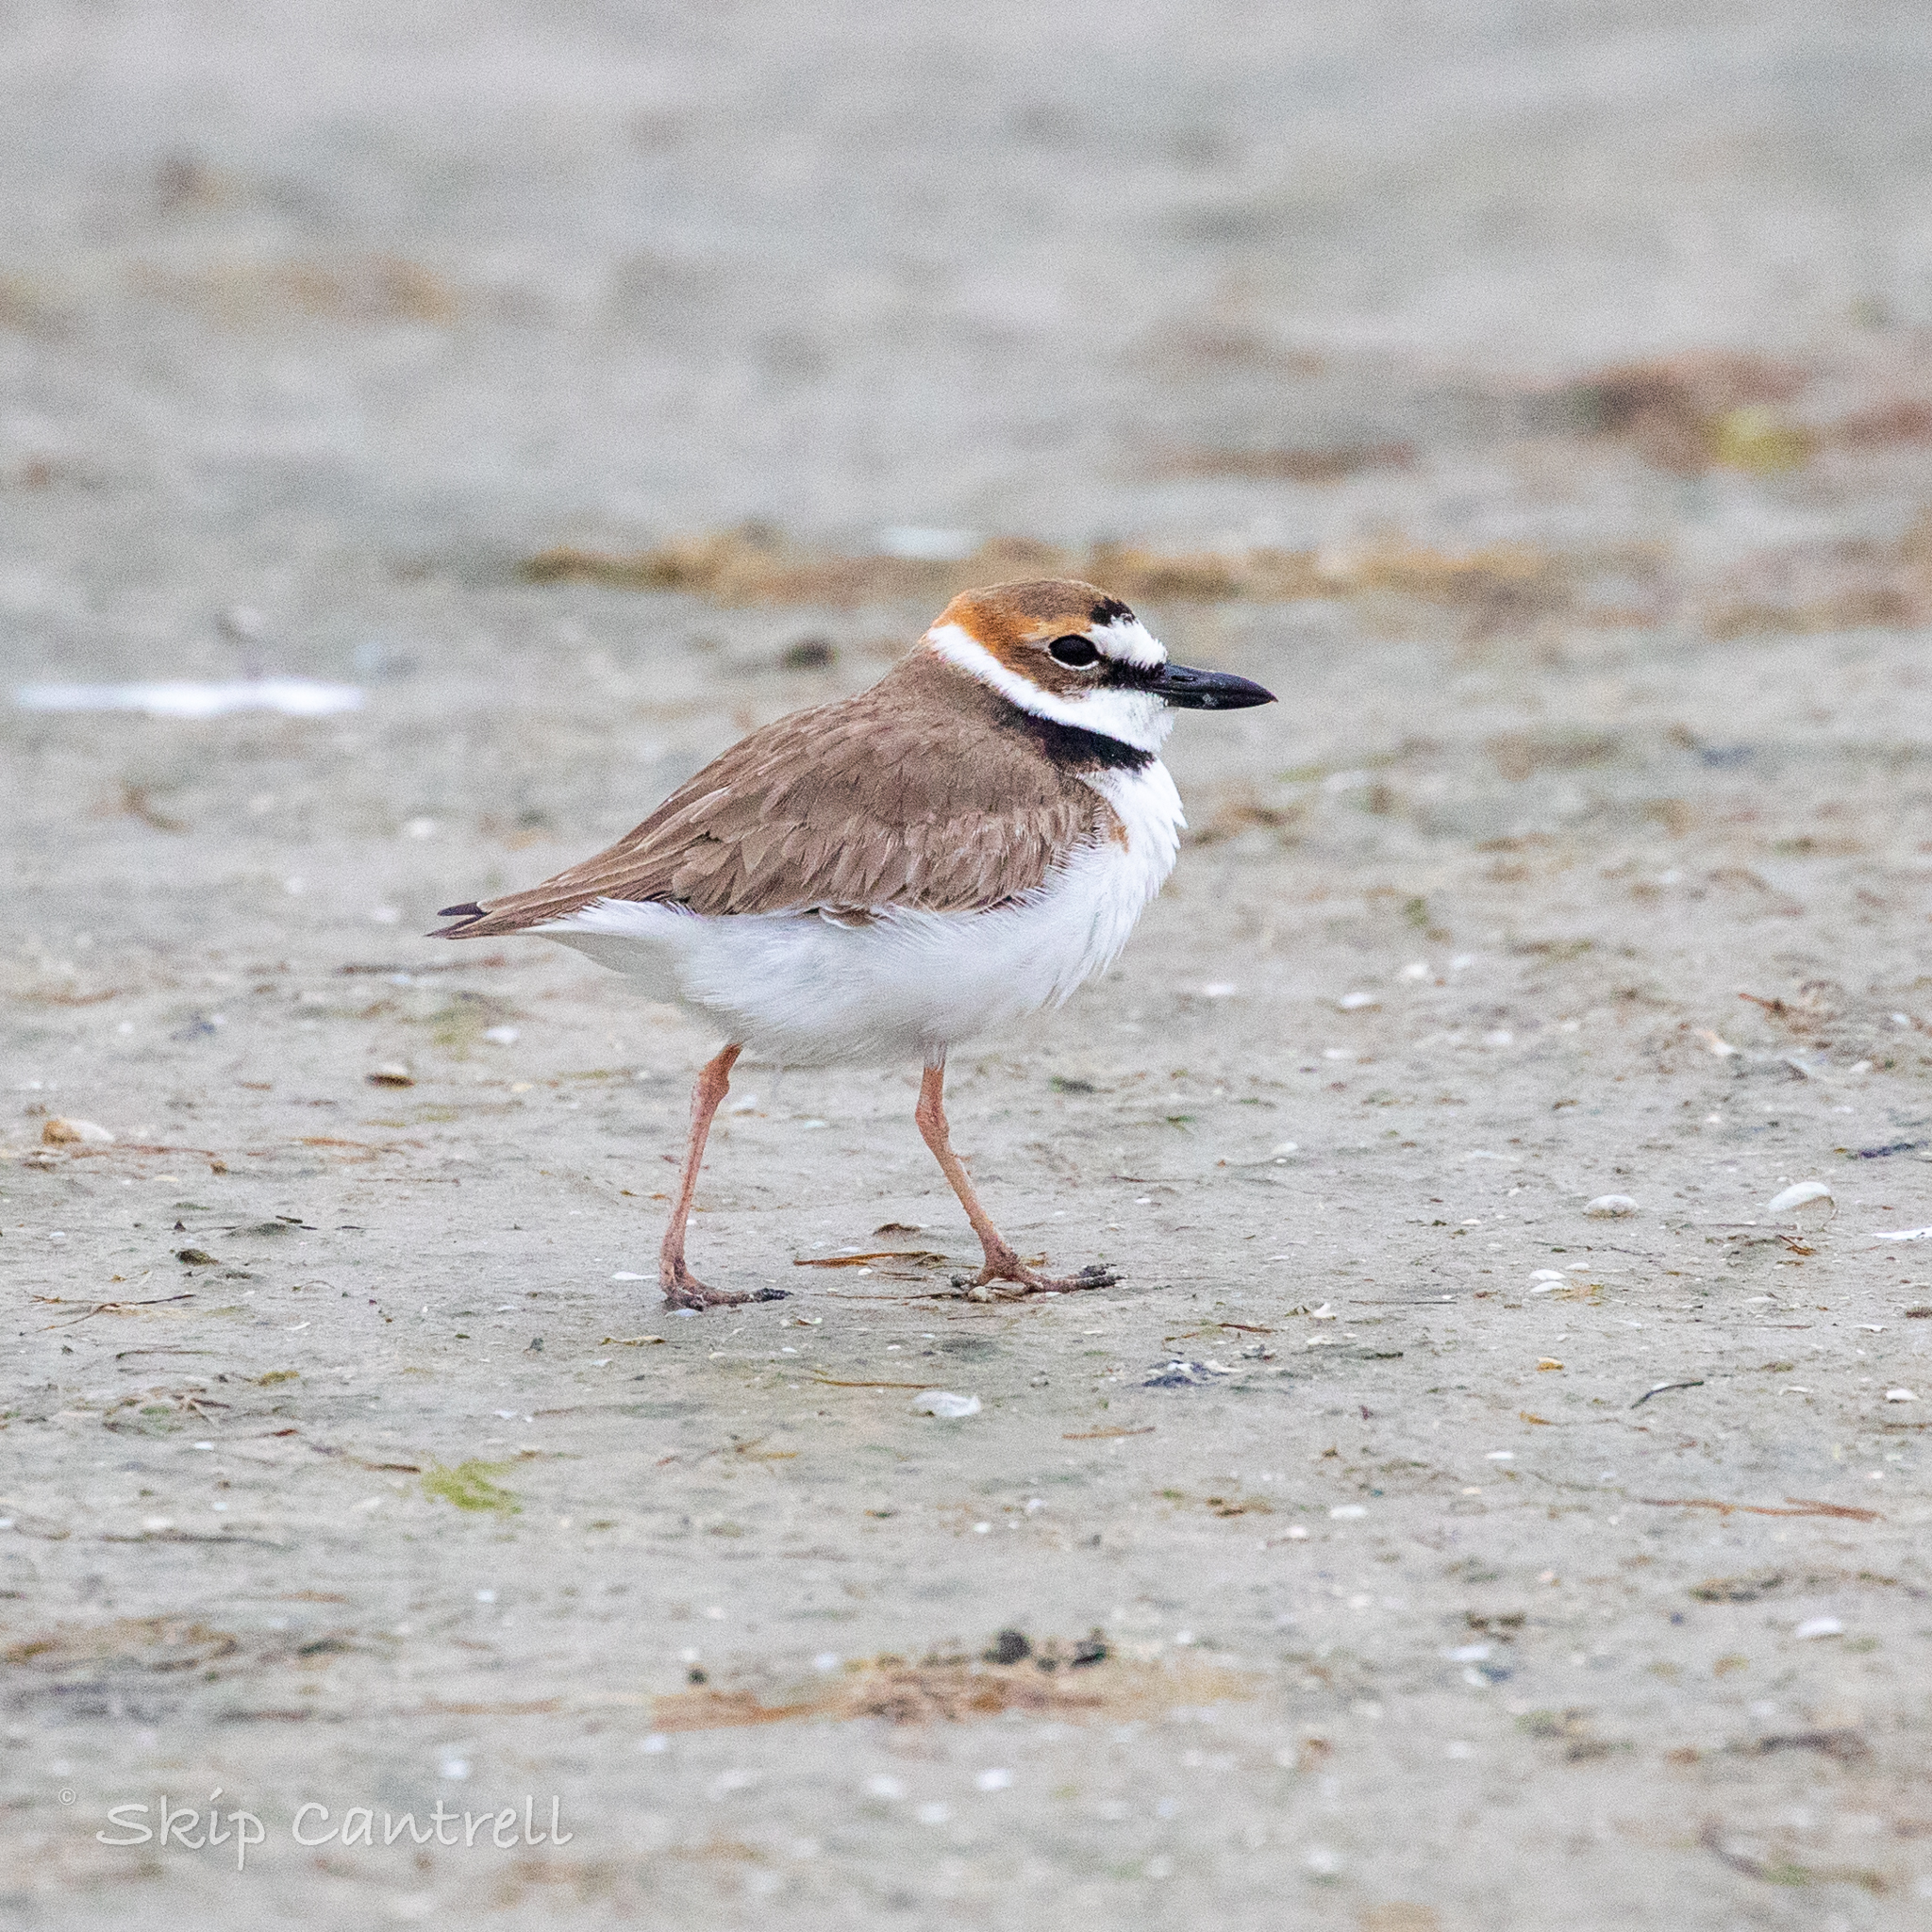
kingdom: Animalia
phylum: Chordata
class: Aves
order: Charadriiformes
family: Charadriidae
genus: Anarhynchus
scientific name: Anarhynchus
